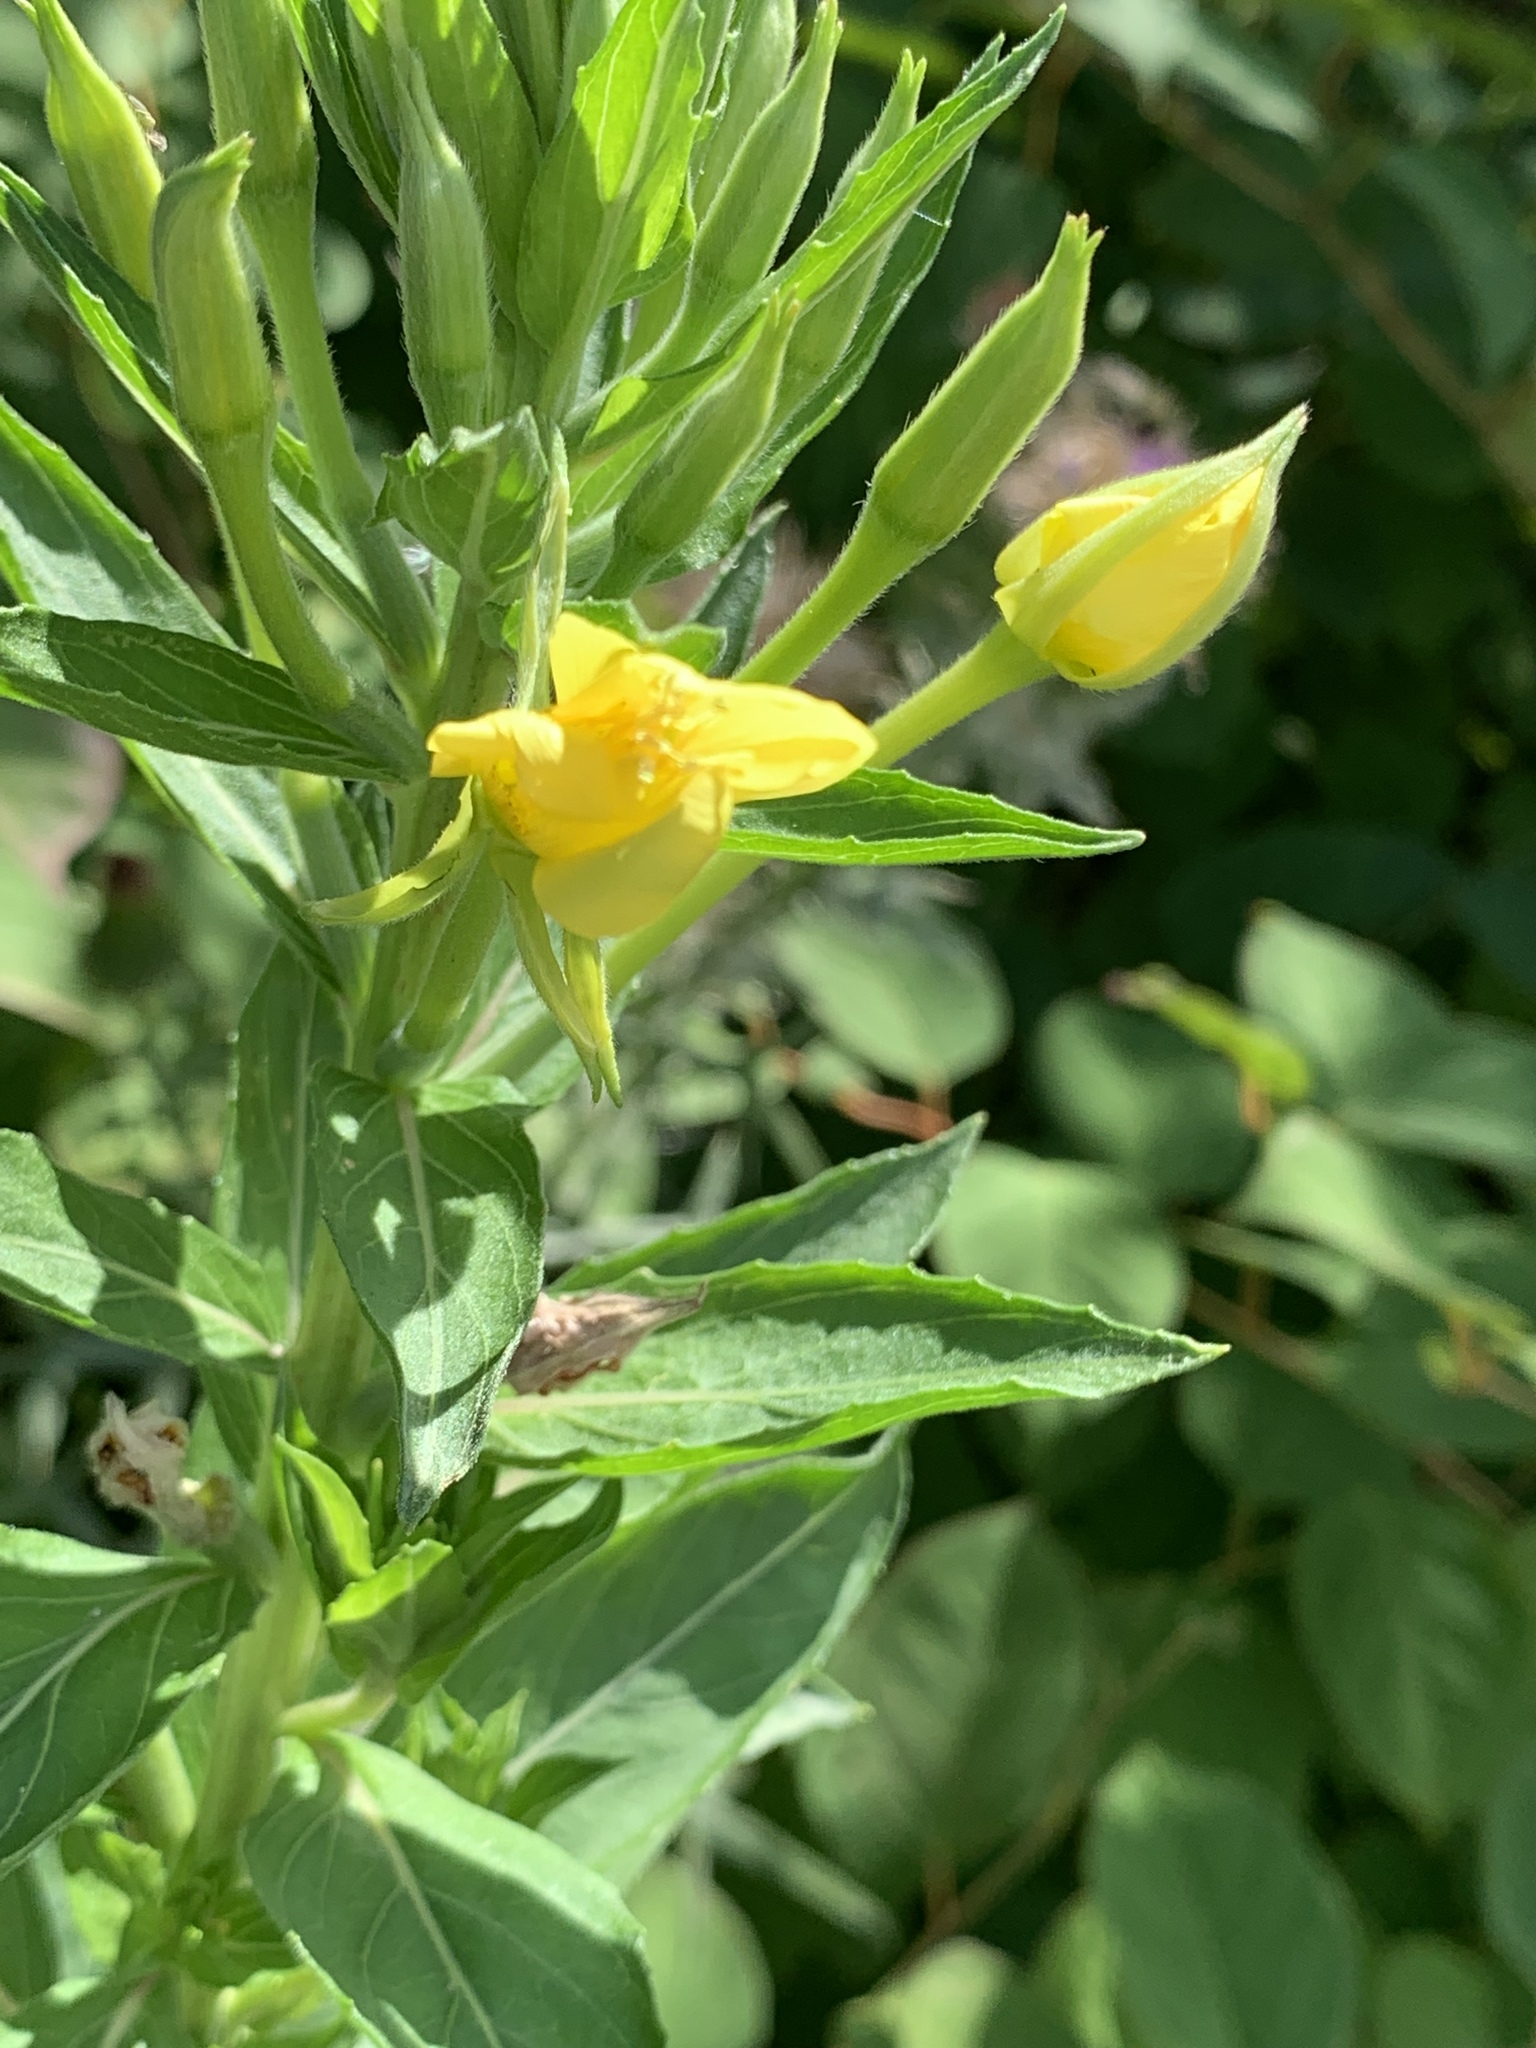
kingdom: Plantae
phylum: Tracheophyta
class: Magnoliopsida
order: Myrtales
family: Onagraceae
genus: Oenothera
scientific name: Oenothera biennis
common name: Common evening-primrose
